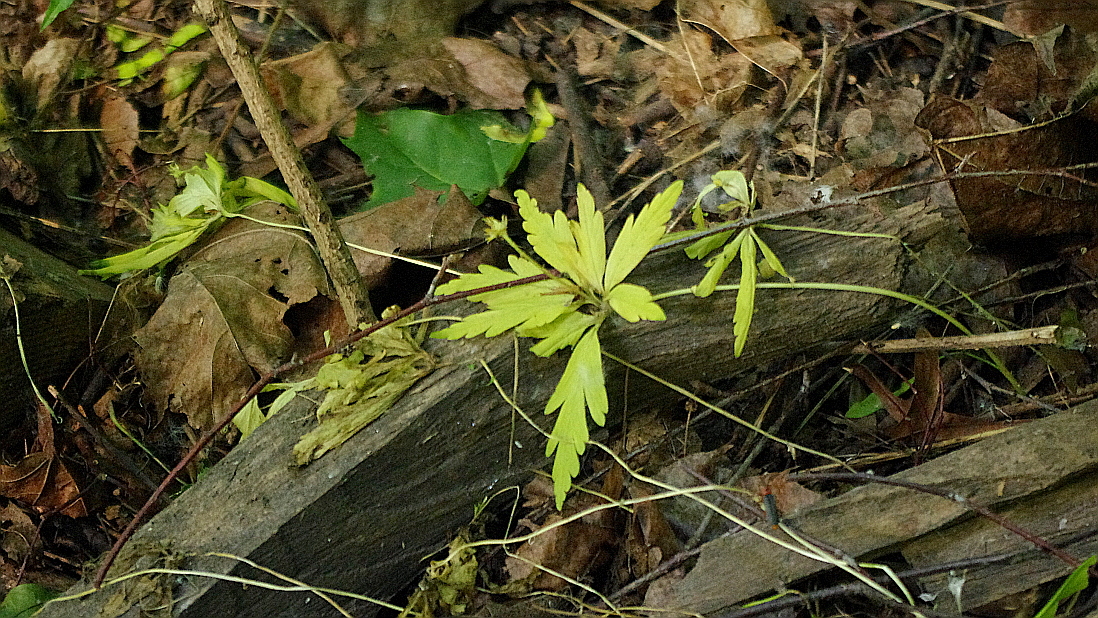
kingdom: Plantae
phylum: Tracheophyta
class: Magnoliopsida
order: Ranunculales
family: Ranunculaceae
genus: Anemone
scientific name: Anemone ranunculoides
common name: Yellow anemone
